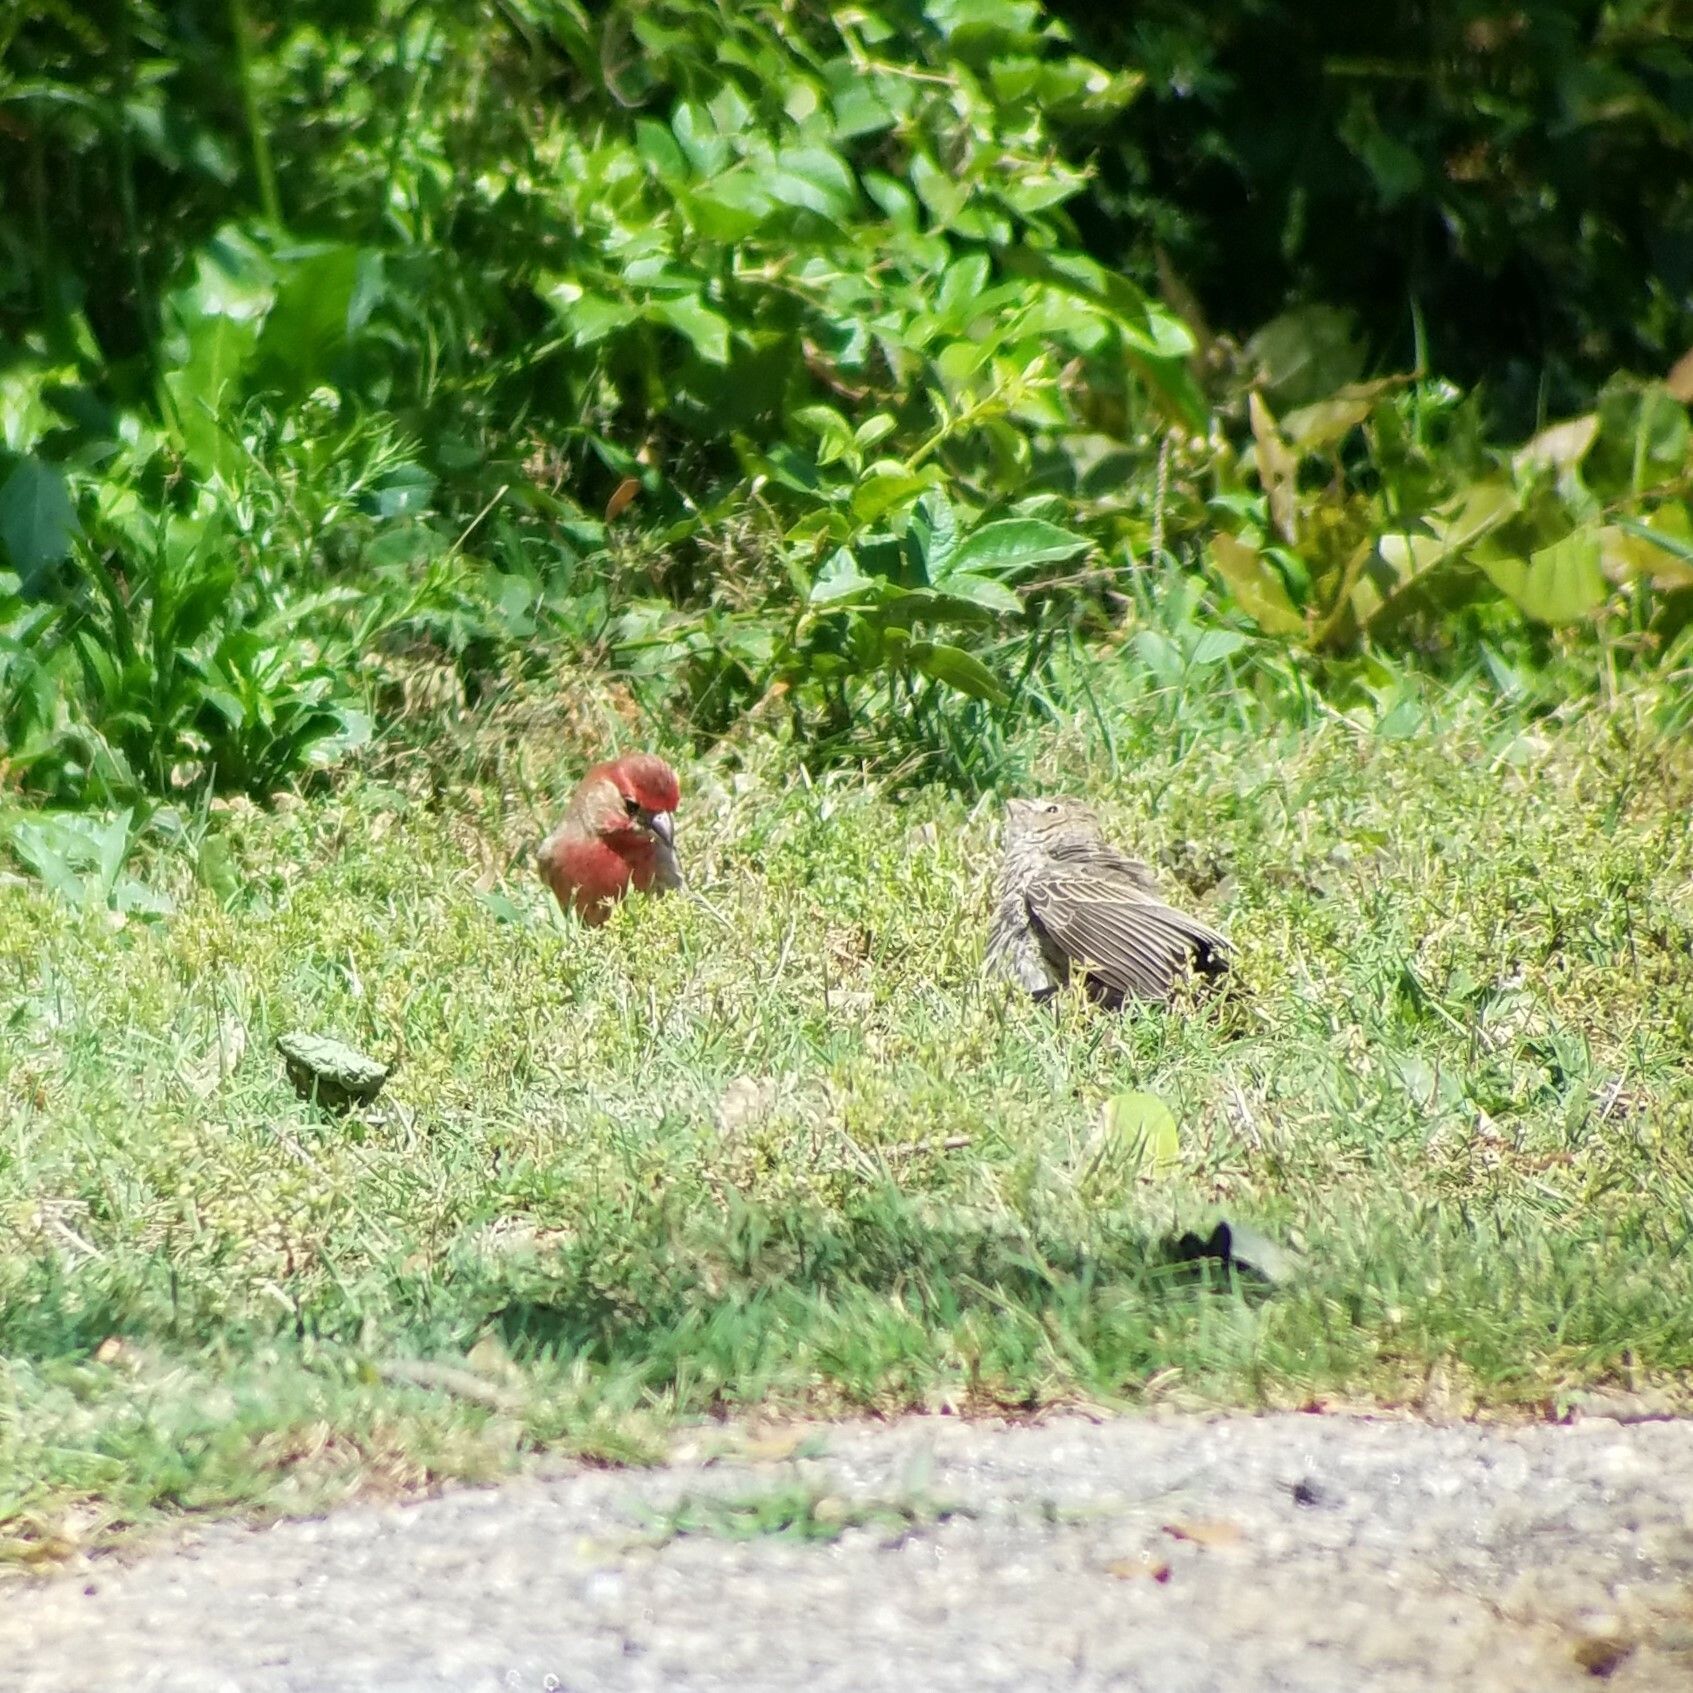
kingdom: Animalia
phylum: Chordata
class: Aves
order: Passeriformes
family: Fringillidae
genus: Haemorhous
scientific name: Haemorhous mexicanus
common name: House finch
